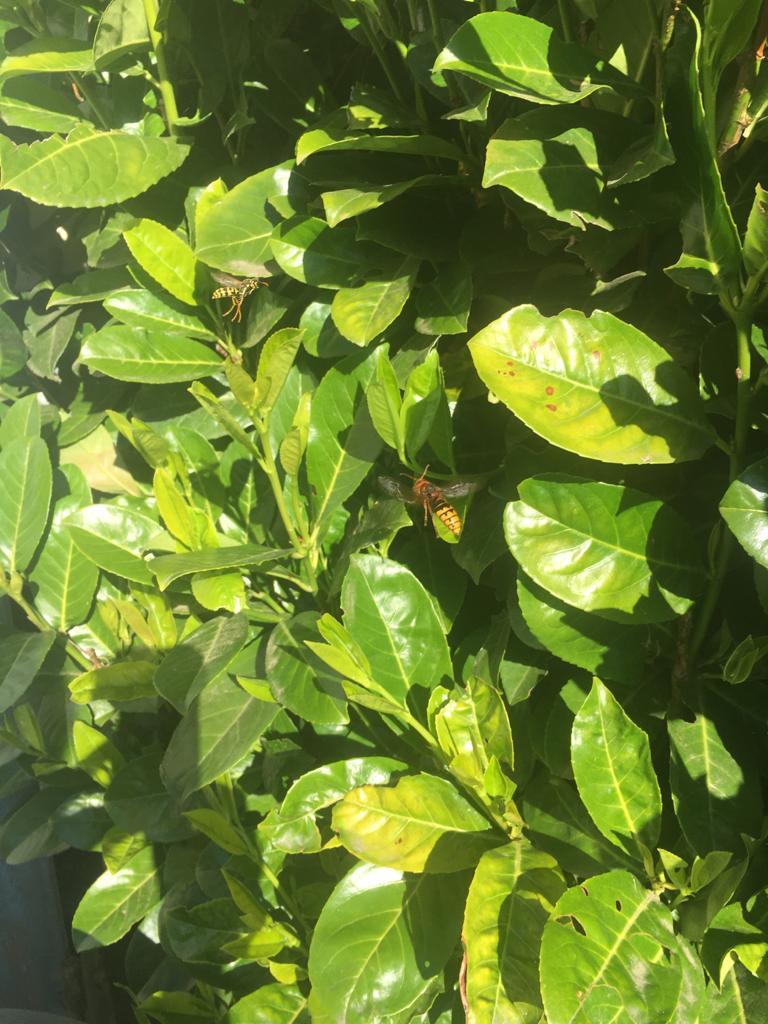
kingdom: Animalia
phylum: Arthropoda
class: Insecta
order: Hymenoptera
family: Vespidae
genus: Vespa
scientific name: Vespa crabro
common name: Hornet
